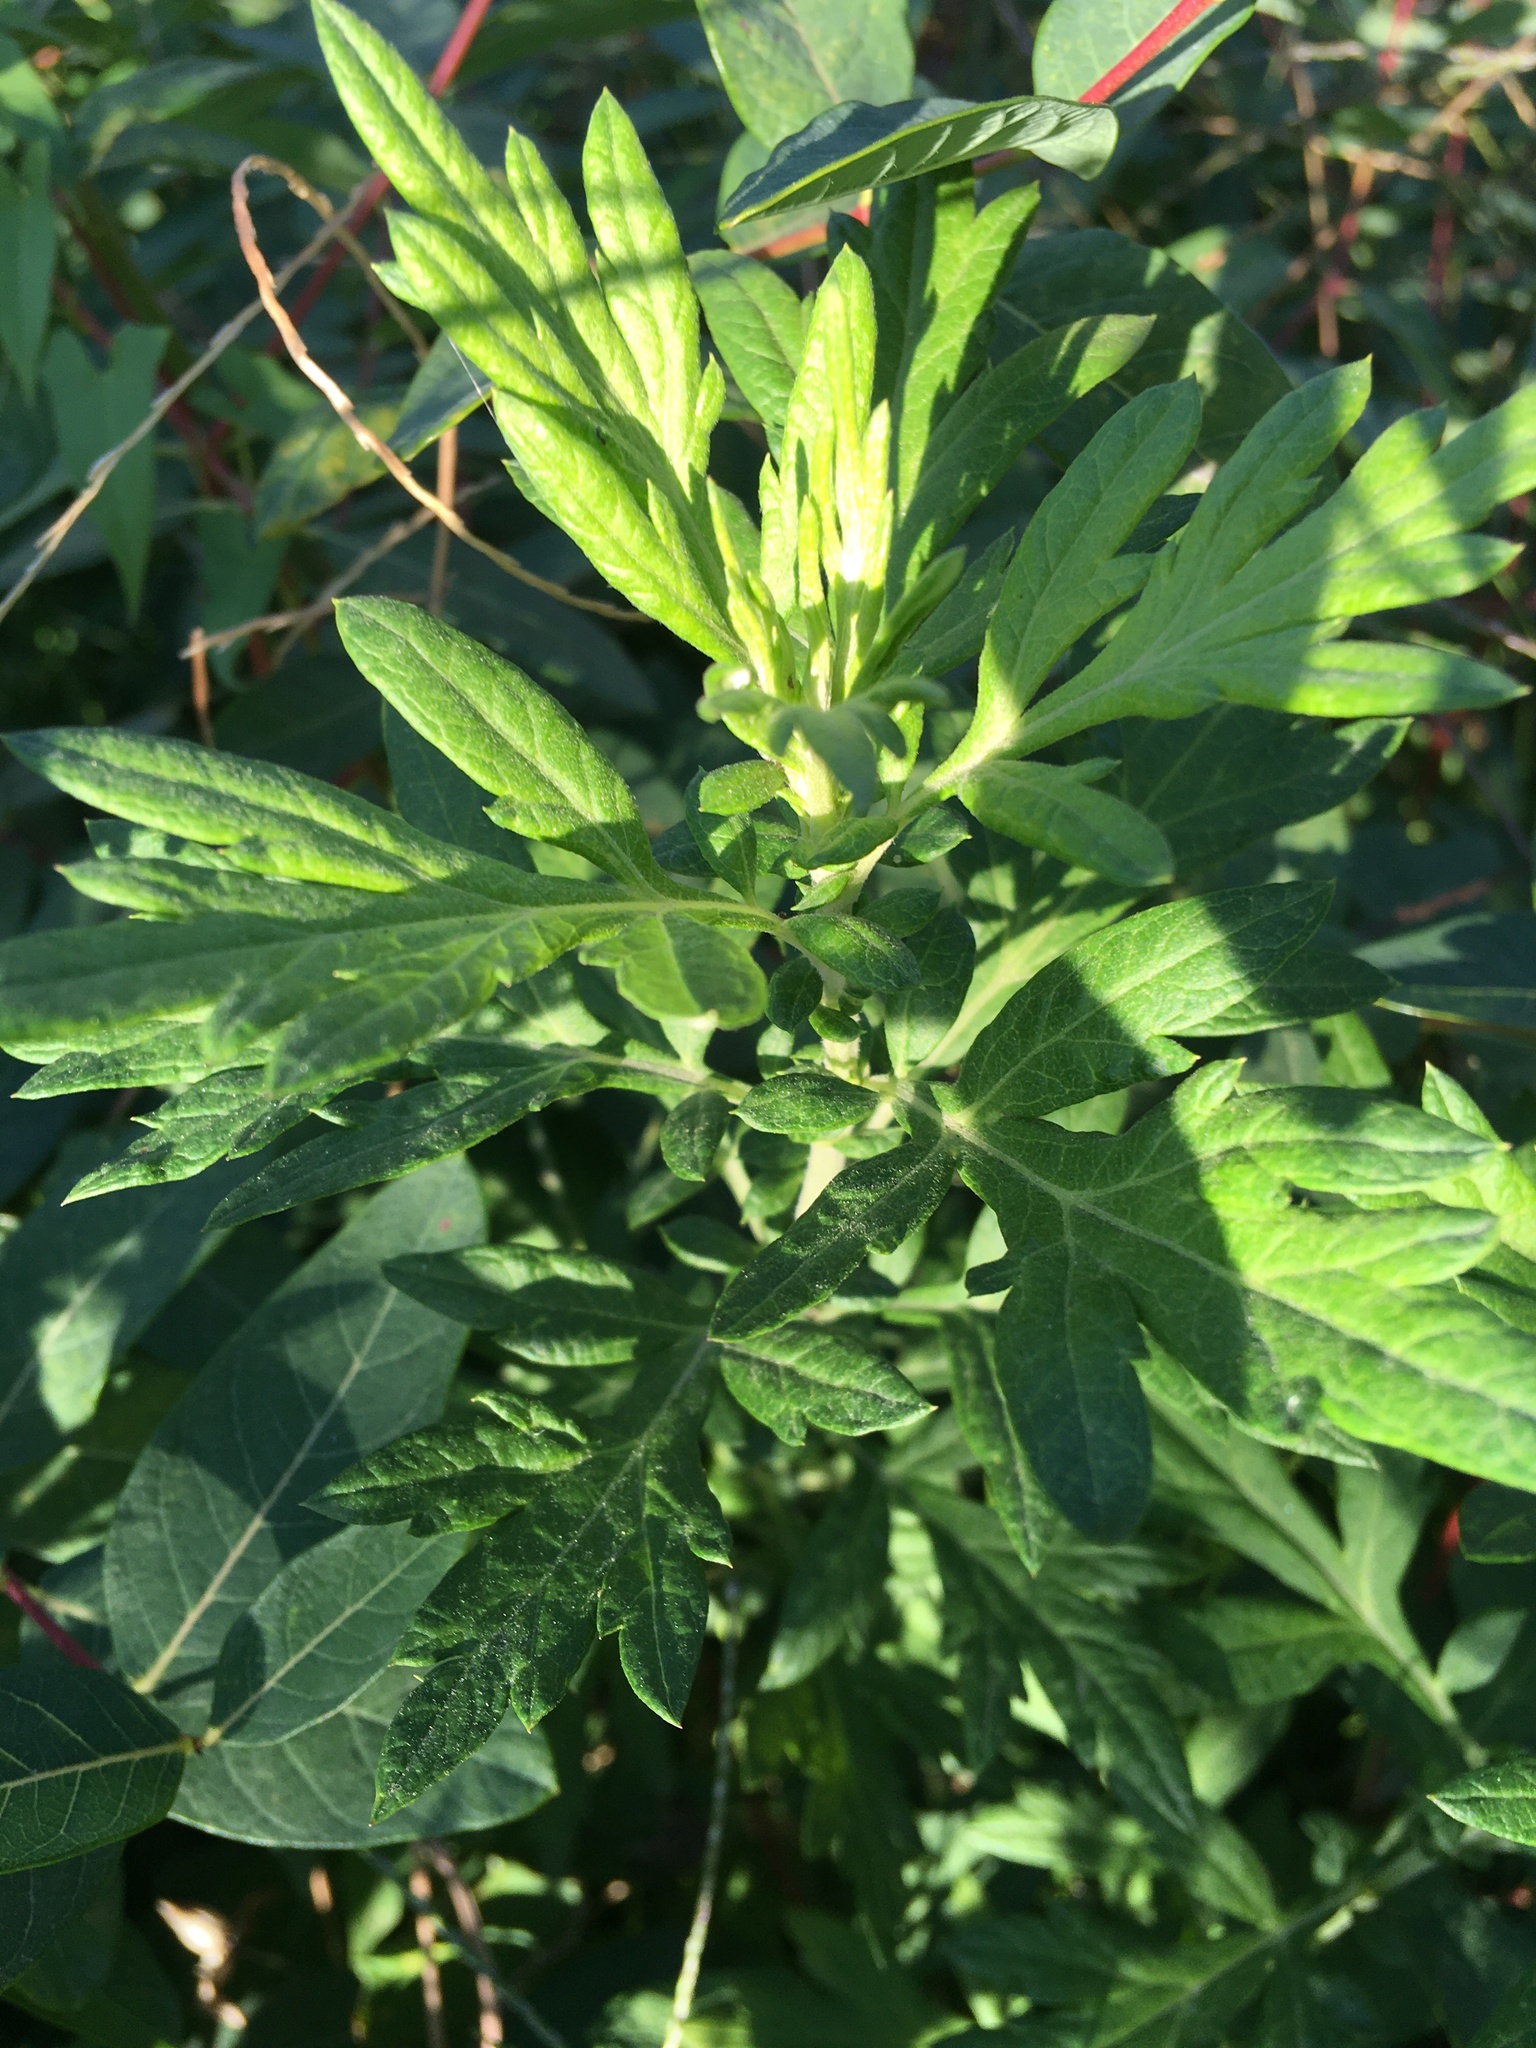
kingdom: Plantae
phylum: Tracheophyta
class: Magnoliopsida
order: Asterales
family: Asteraceae
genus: Artemisia
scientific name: Artemisia vulgaris
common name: Mugwort
